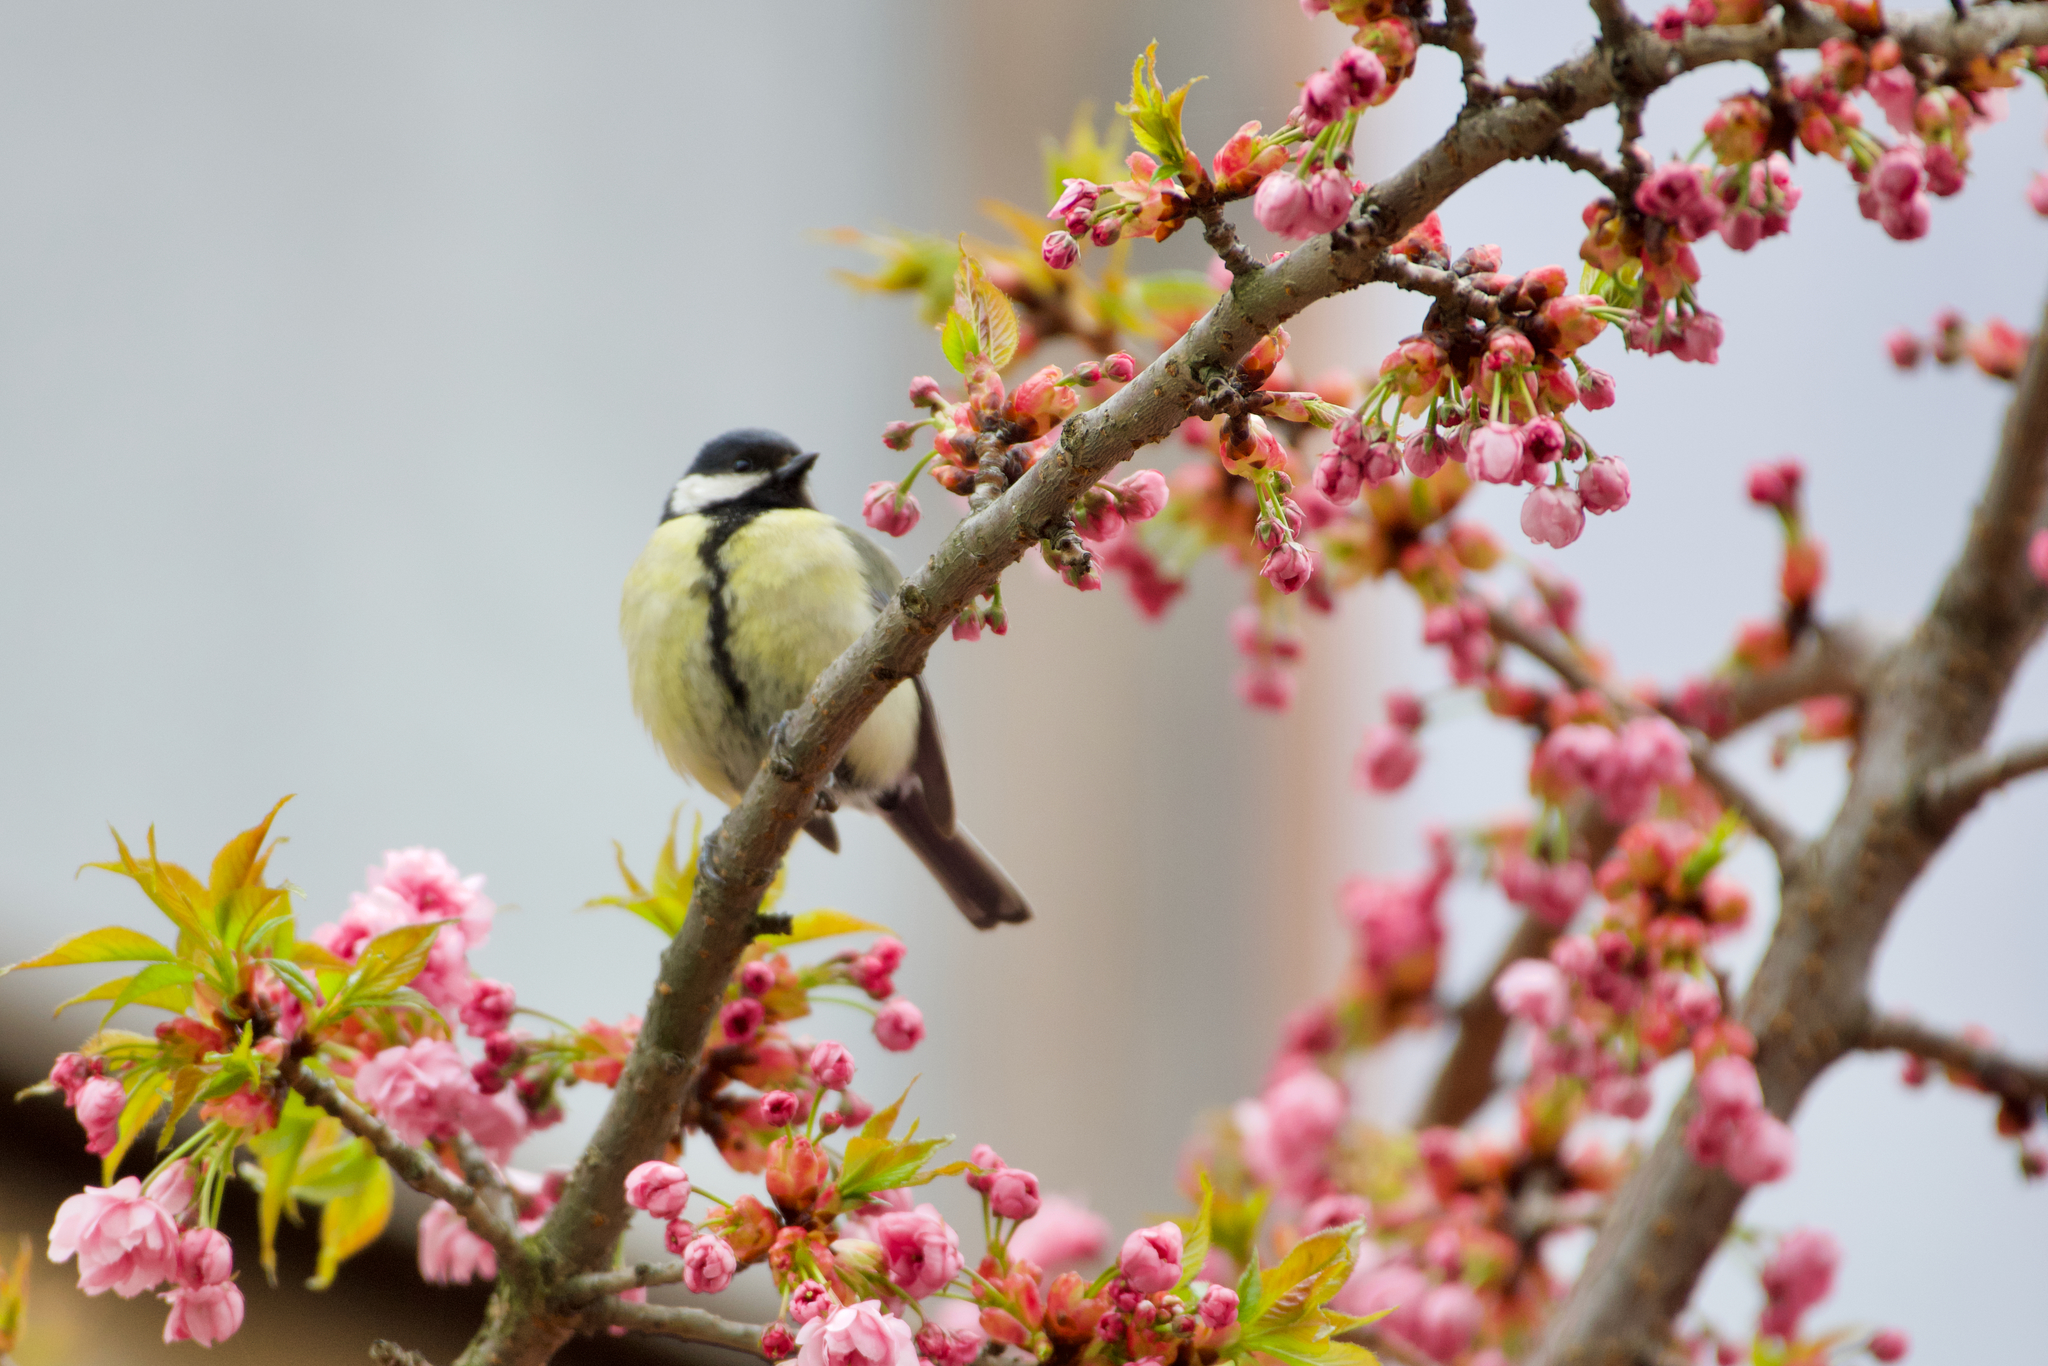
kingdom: Animalia
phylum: Chordata
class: Aves
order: Passeriformes
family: Paridae
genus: Parus
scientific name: Parus major
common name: Great tit
